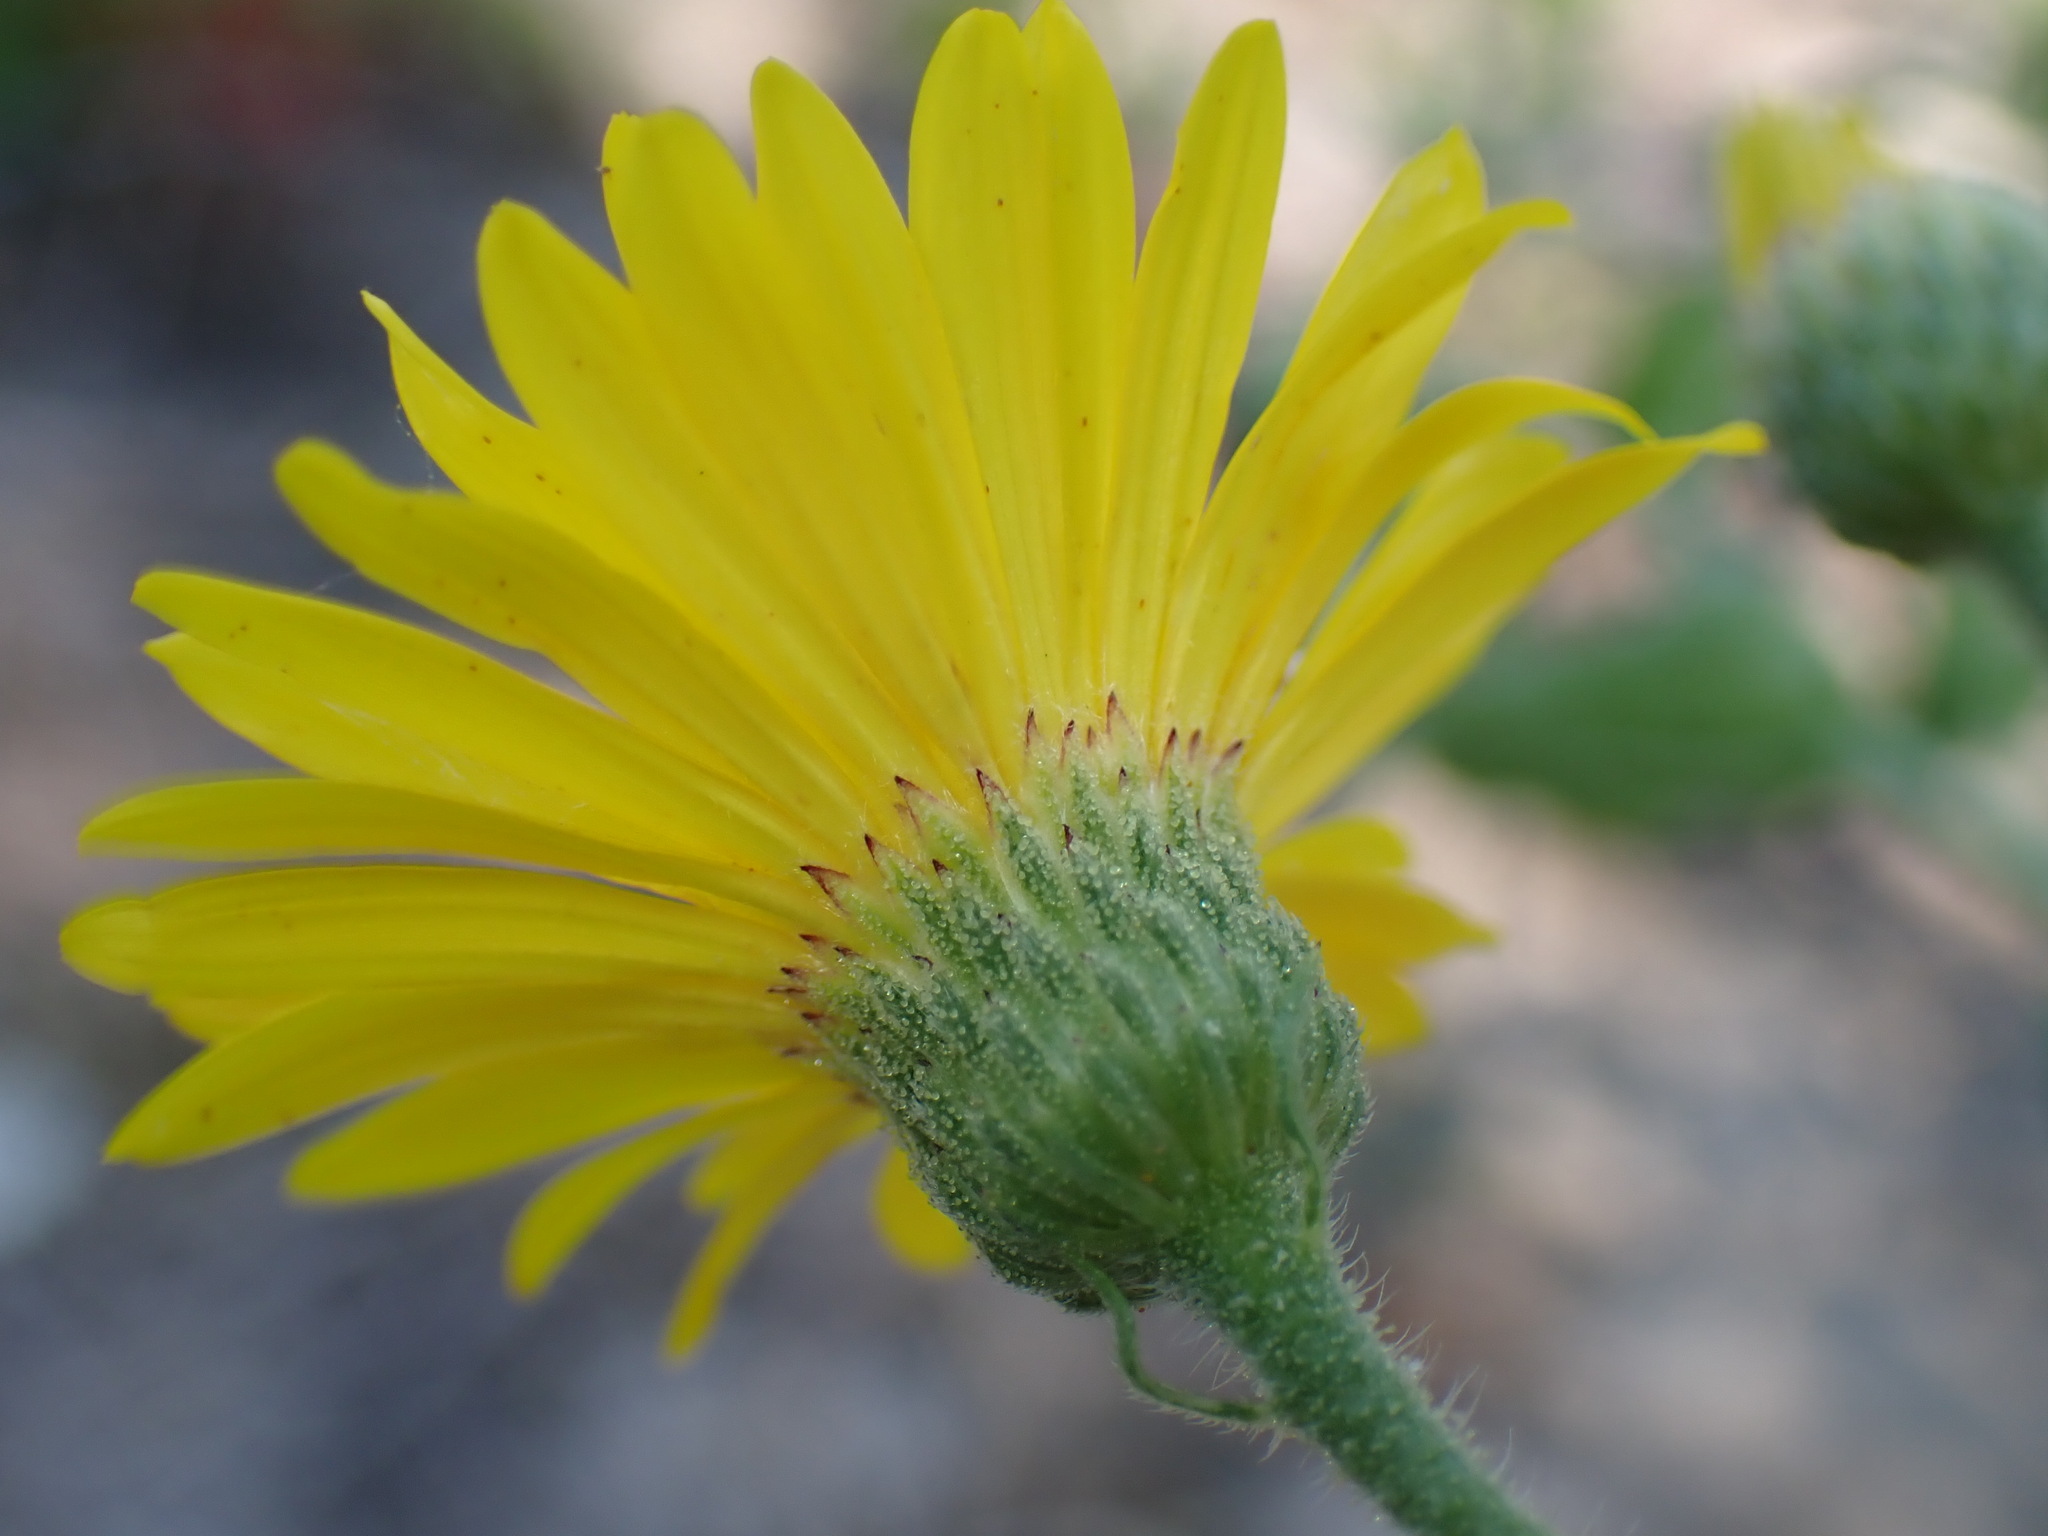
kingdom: Plantae
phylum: Tracheophyta
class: Magnoliopsida
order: Asterales
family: Asteraceae
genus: Heterotheca
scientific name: Heterotheca subaxillaris
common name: Camphorweed
